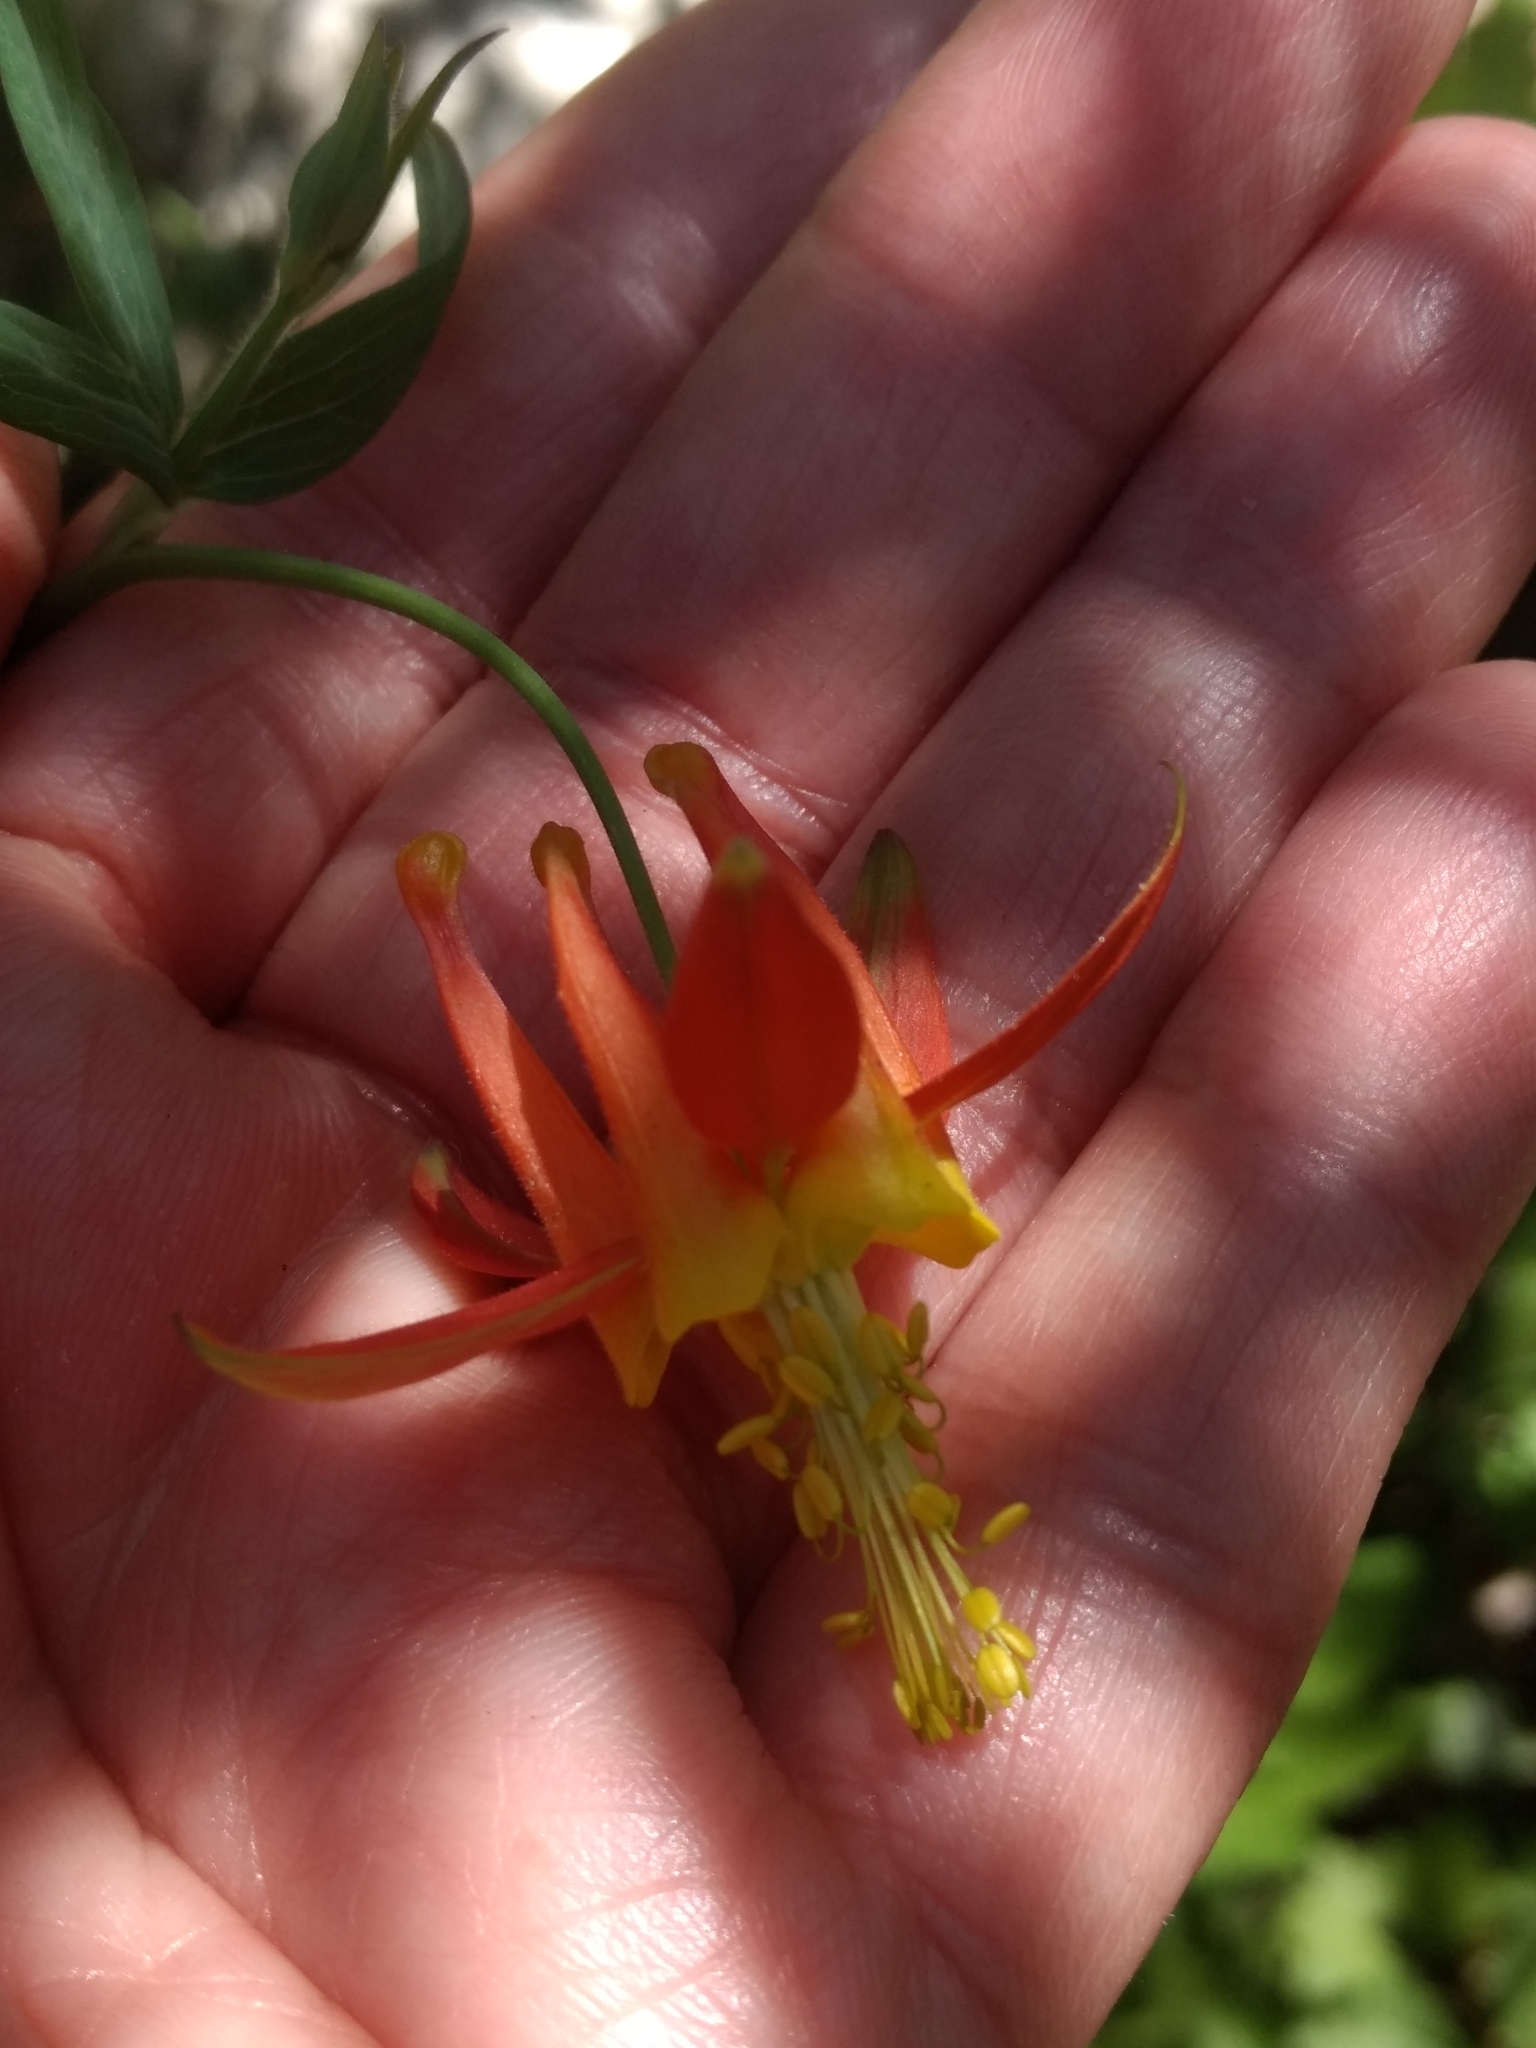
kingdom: Plantae
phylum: Tracheophyta
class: Magnoliopsida
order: Ranunculales
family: Ranunculaceae
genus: Aquilegia
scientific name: Aquilegia formosa
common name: Sitka columbine
